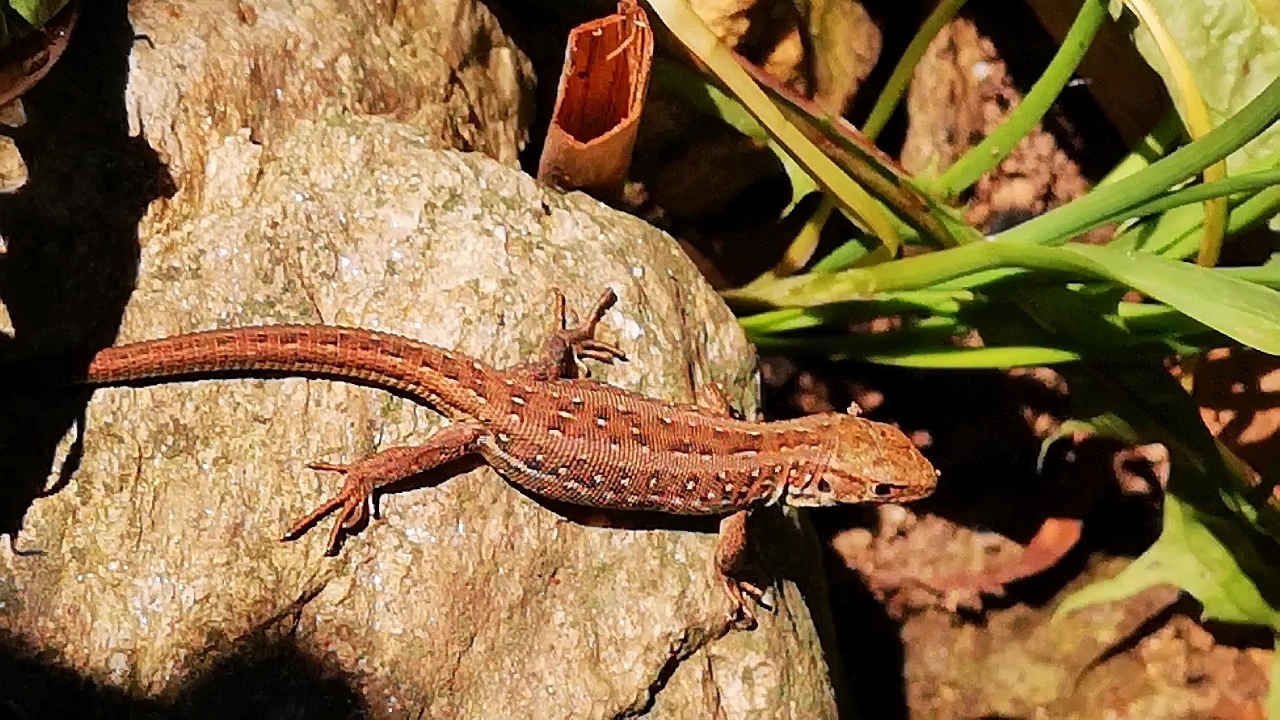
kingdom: Animalia
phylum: Chordata
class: Squamata
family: Lacertidae
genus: Lacerta
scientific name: Lacerta agilis
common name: Sand lizard
